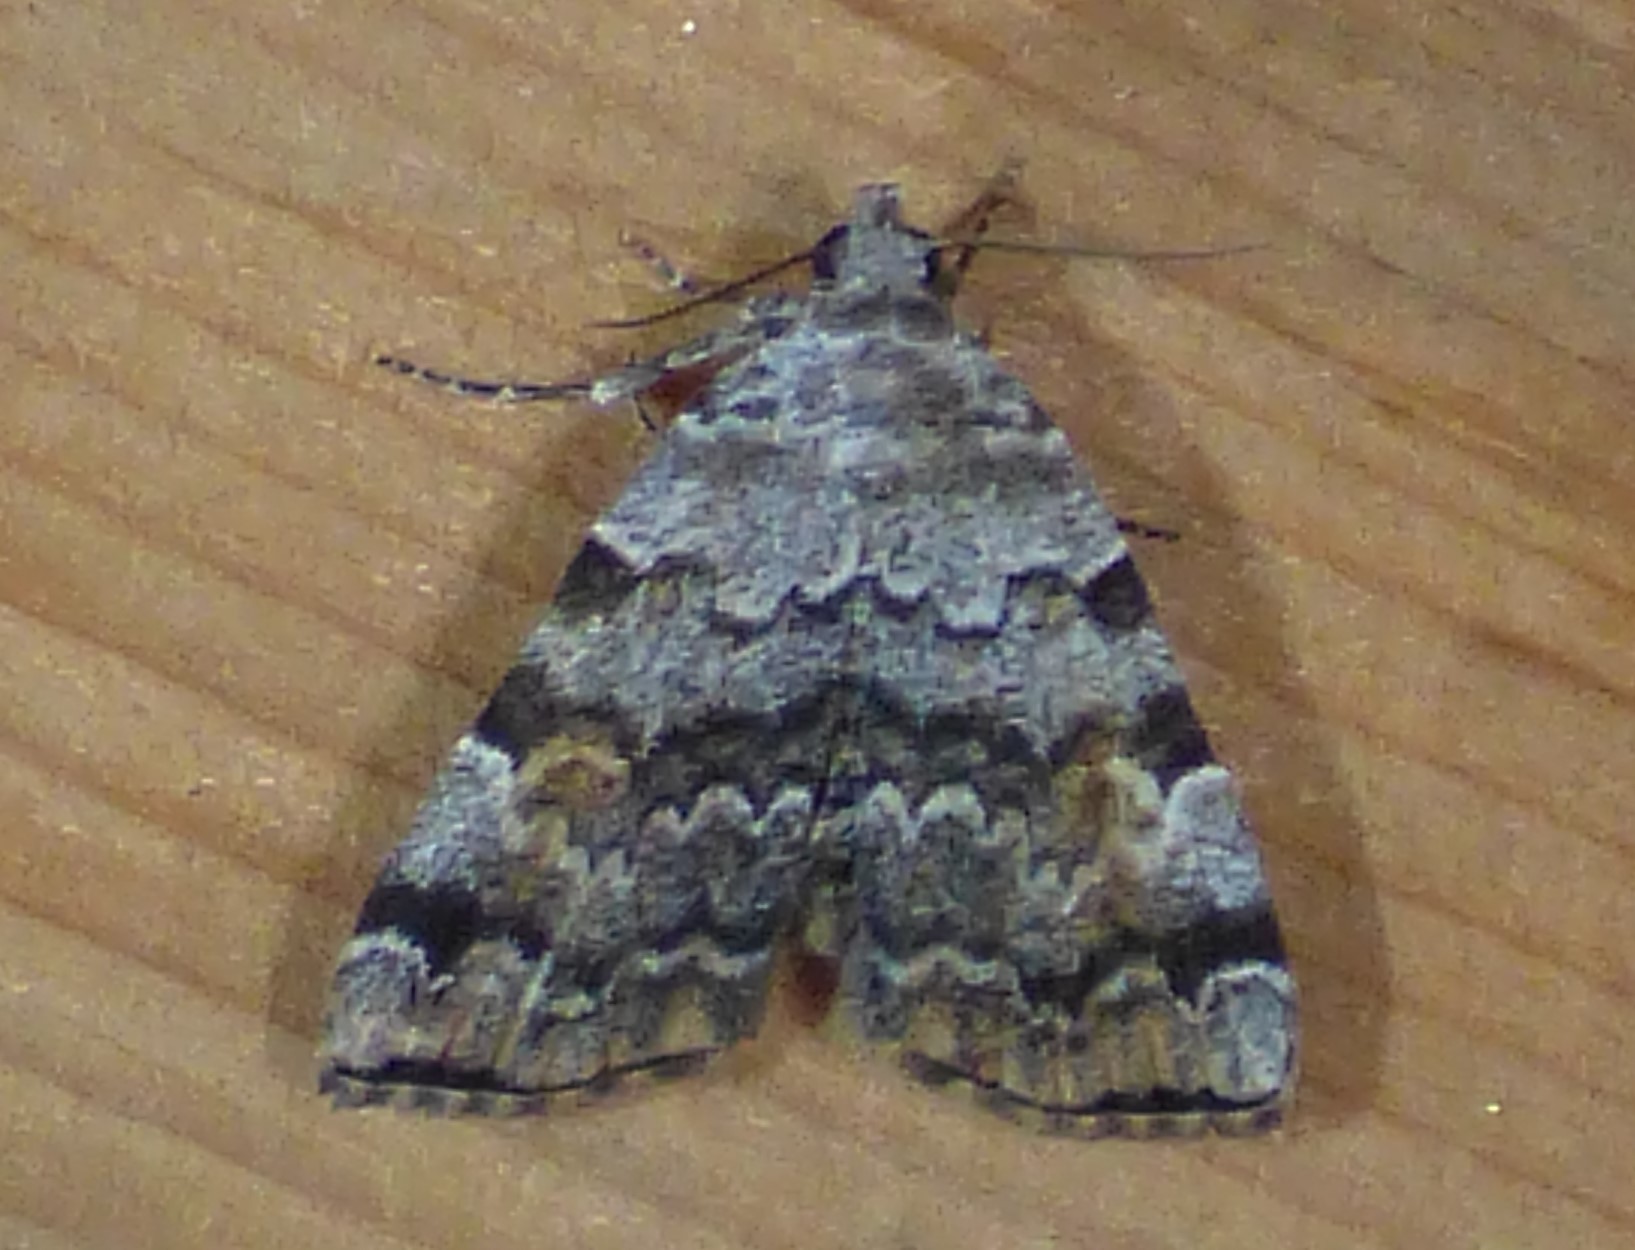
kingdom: Animalia
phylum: Arthropoda
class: Insecta
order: Lepidoptera
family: Erebidae
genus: Idia
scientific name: Idia americalis
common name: American idia moth
